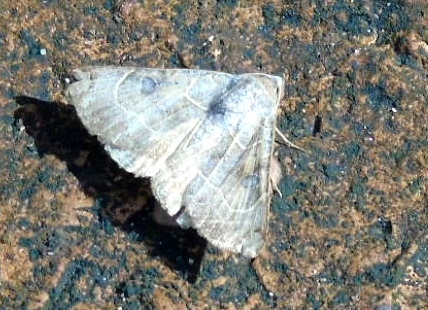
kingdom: Animalia
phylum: Arthropoda
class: Insecta
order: Lepidoptera
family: Erebidae
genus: Isogona
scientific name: Isogona
